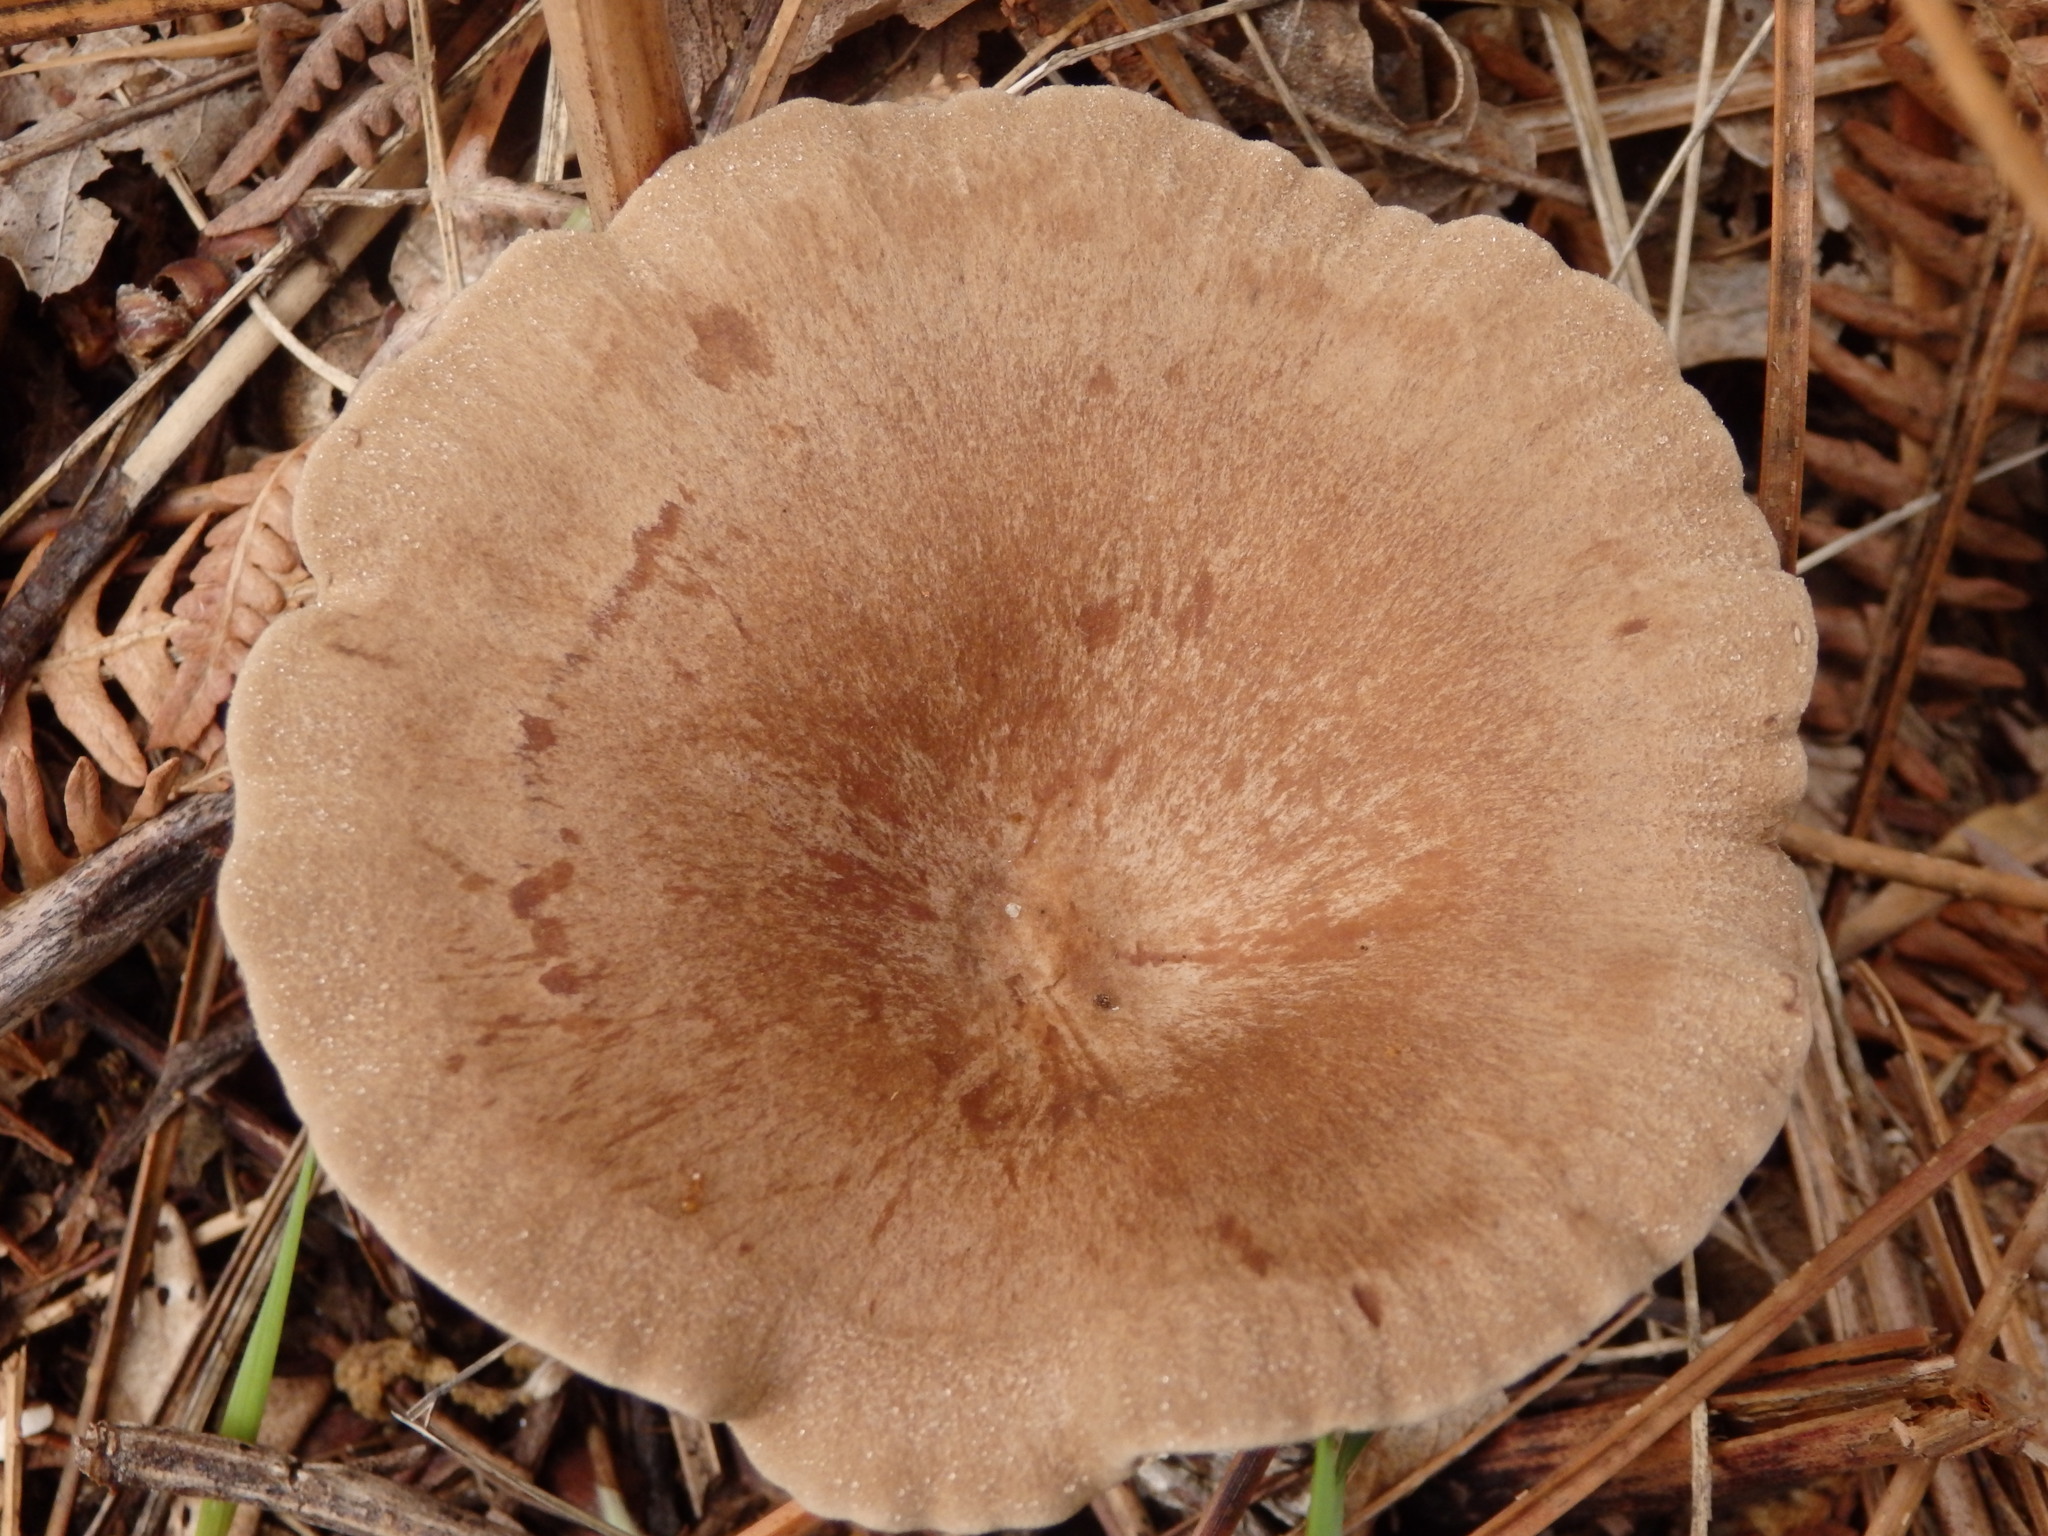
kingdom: Fungi
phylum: Basidiomycota
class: Agaricomycetes
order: Russulales
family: Russulaceae
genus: Lactarius
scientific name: Lactarius rufus
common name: Rufous milk-cap
